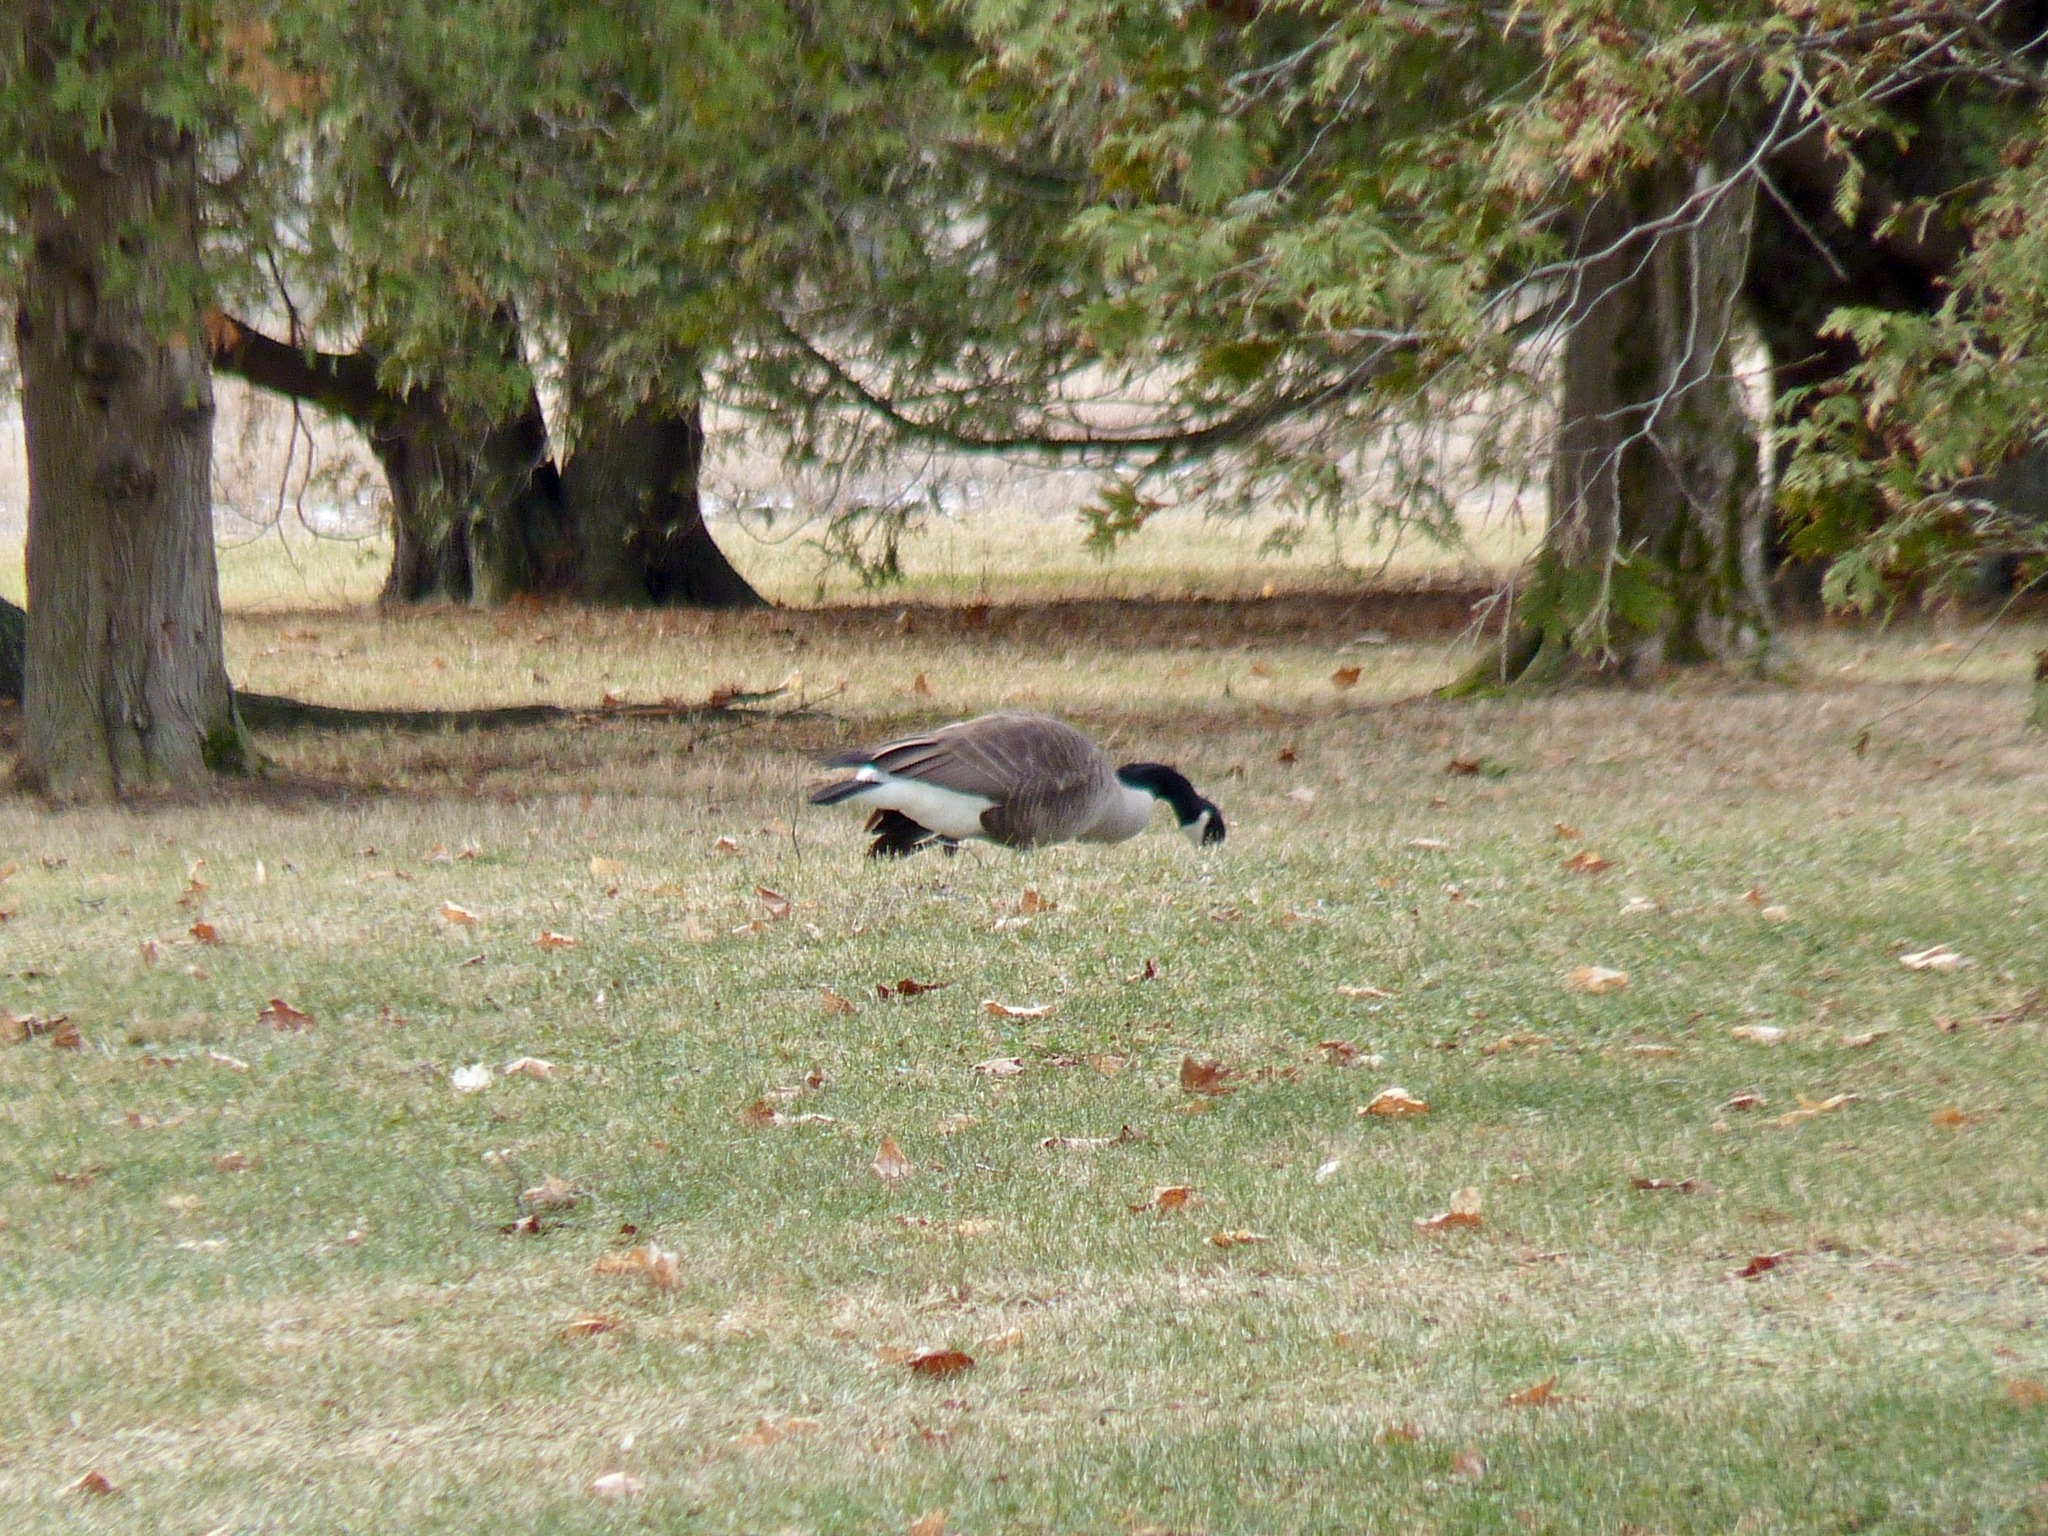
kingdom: Animalia
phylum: Chordata
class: Aves
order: Anseriformes
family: Anatidae
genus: Branta
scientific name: Branta canadensis
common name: Canada goose
